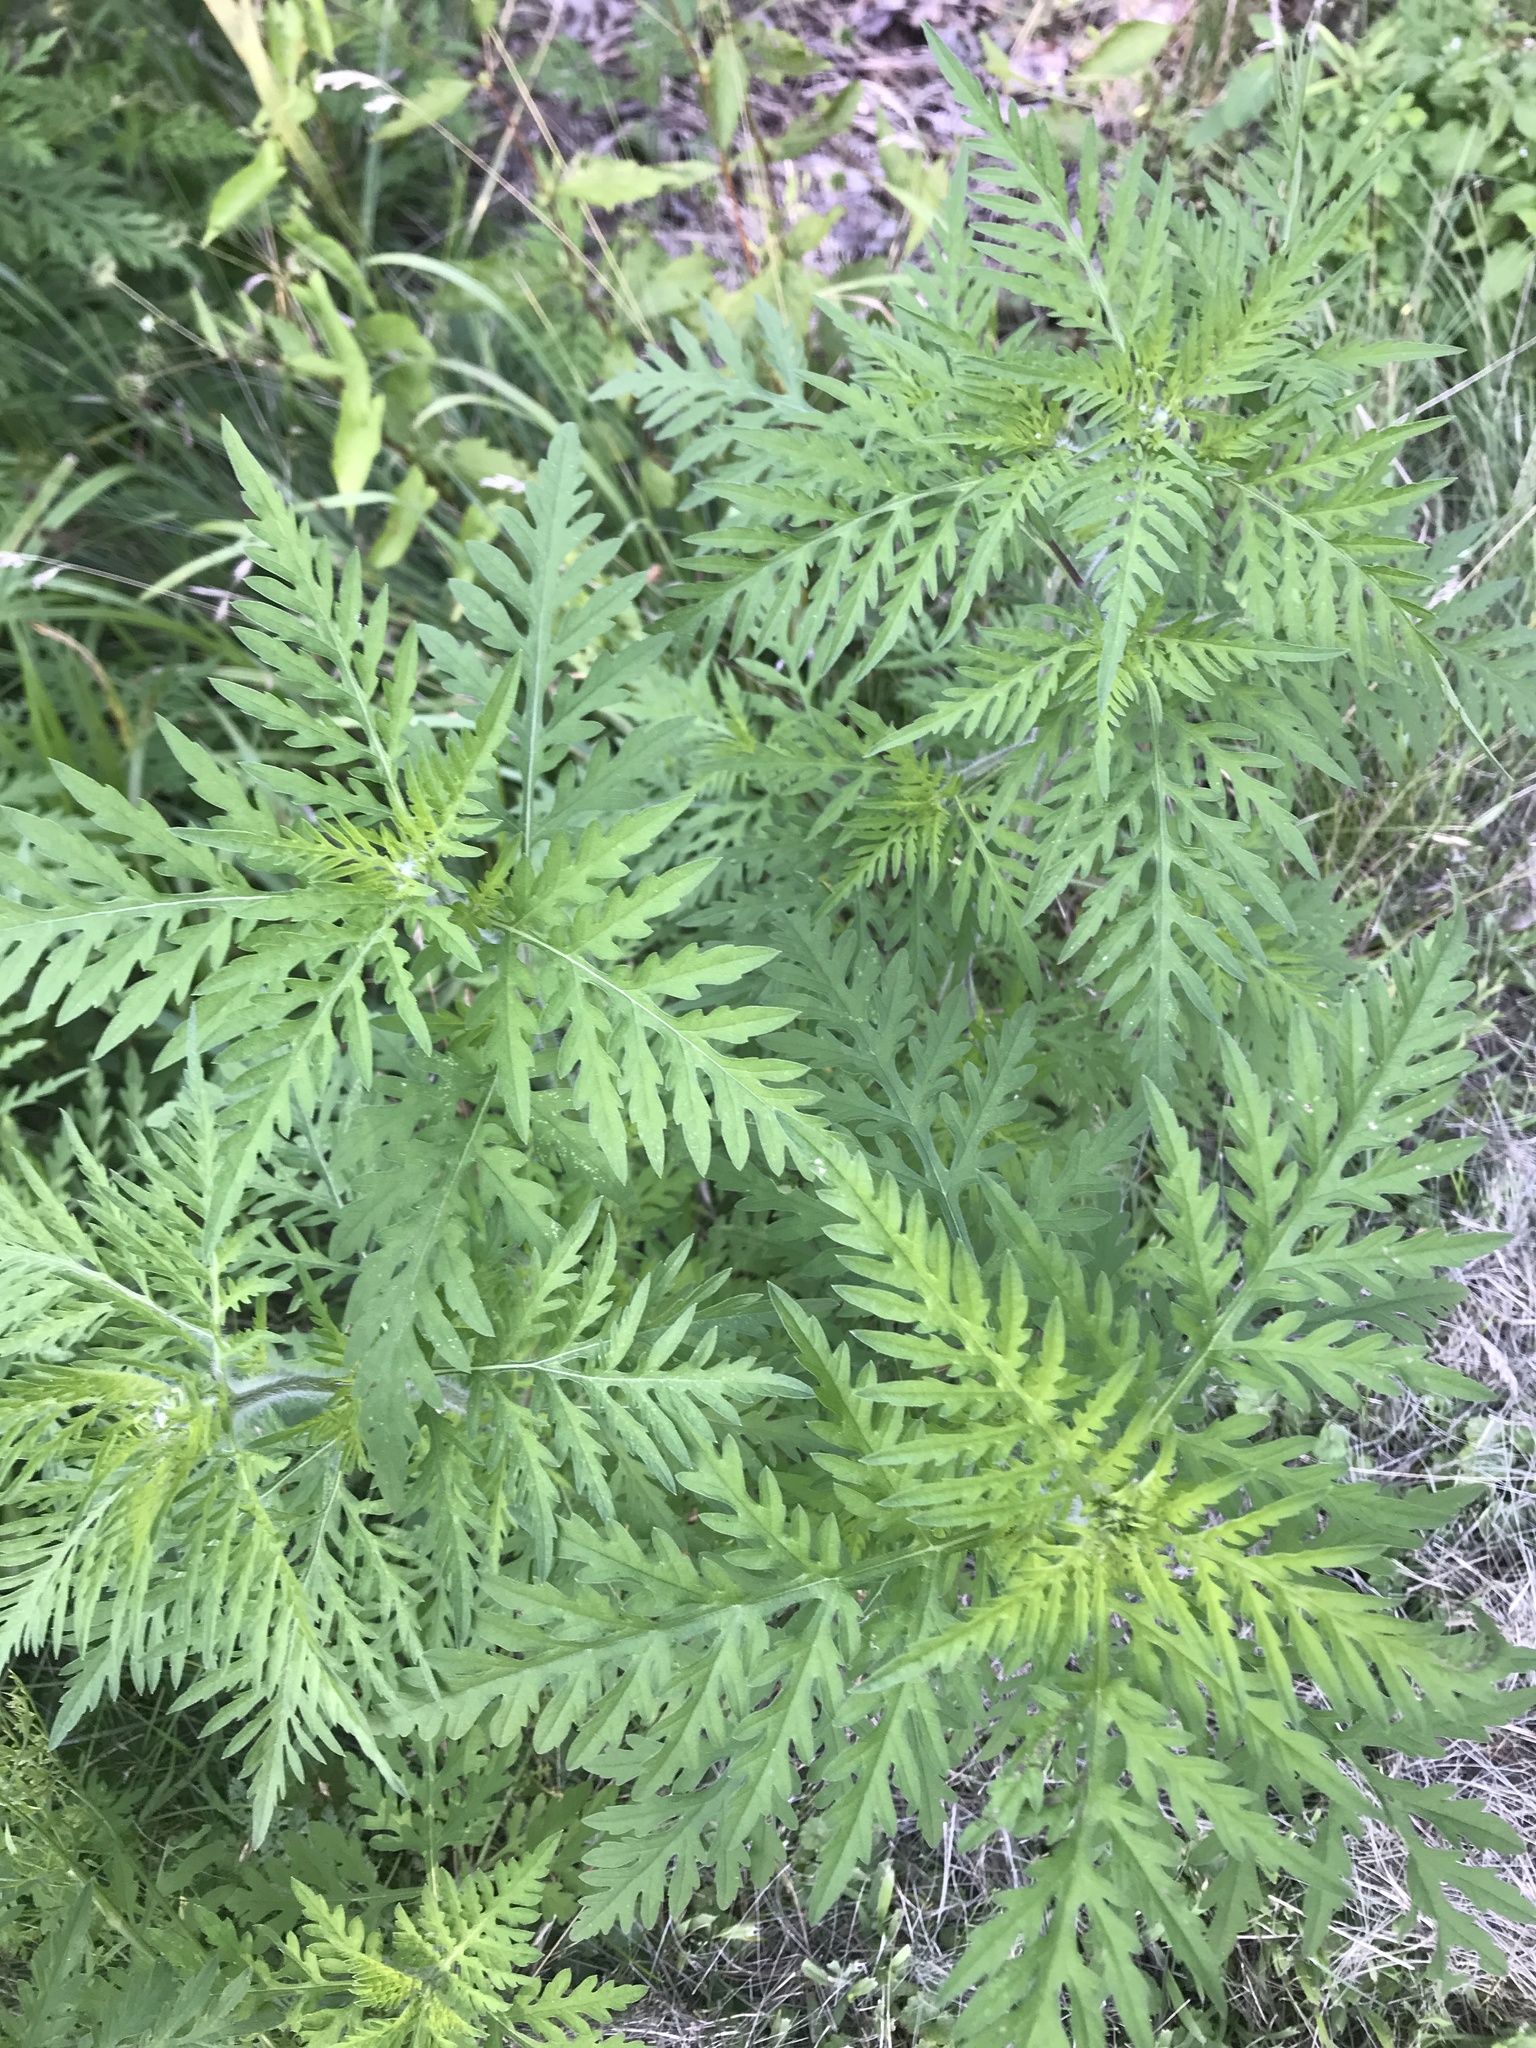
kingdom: Plantae
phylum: Tracheophyta
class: Magnoliopsida
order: Asterales
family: Asteraceae
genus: Ambrosia
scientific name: Ambrosia artemisiifolia
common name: Annual ragweed
